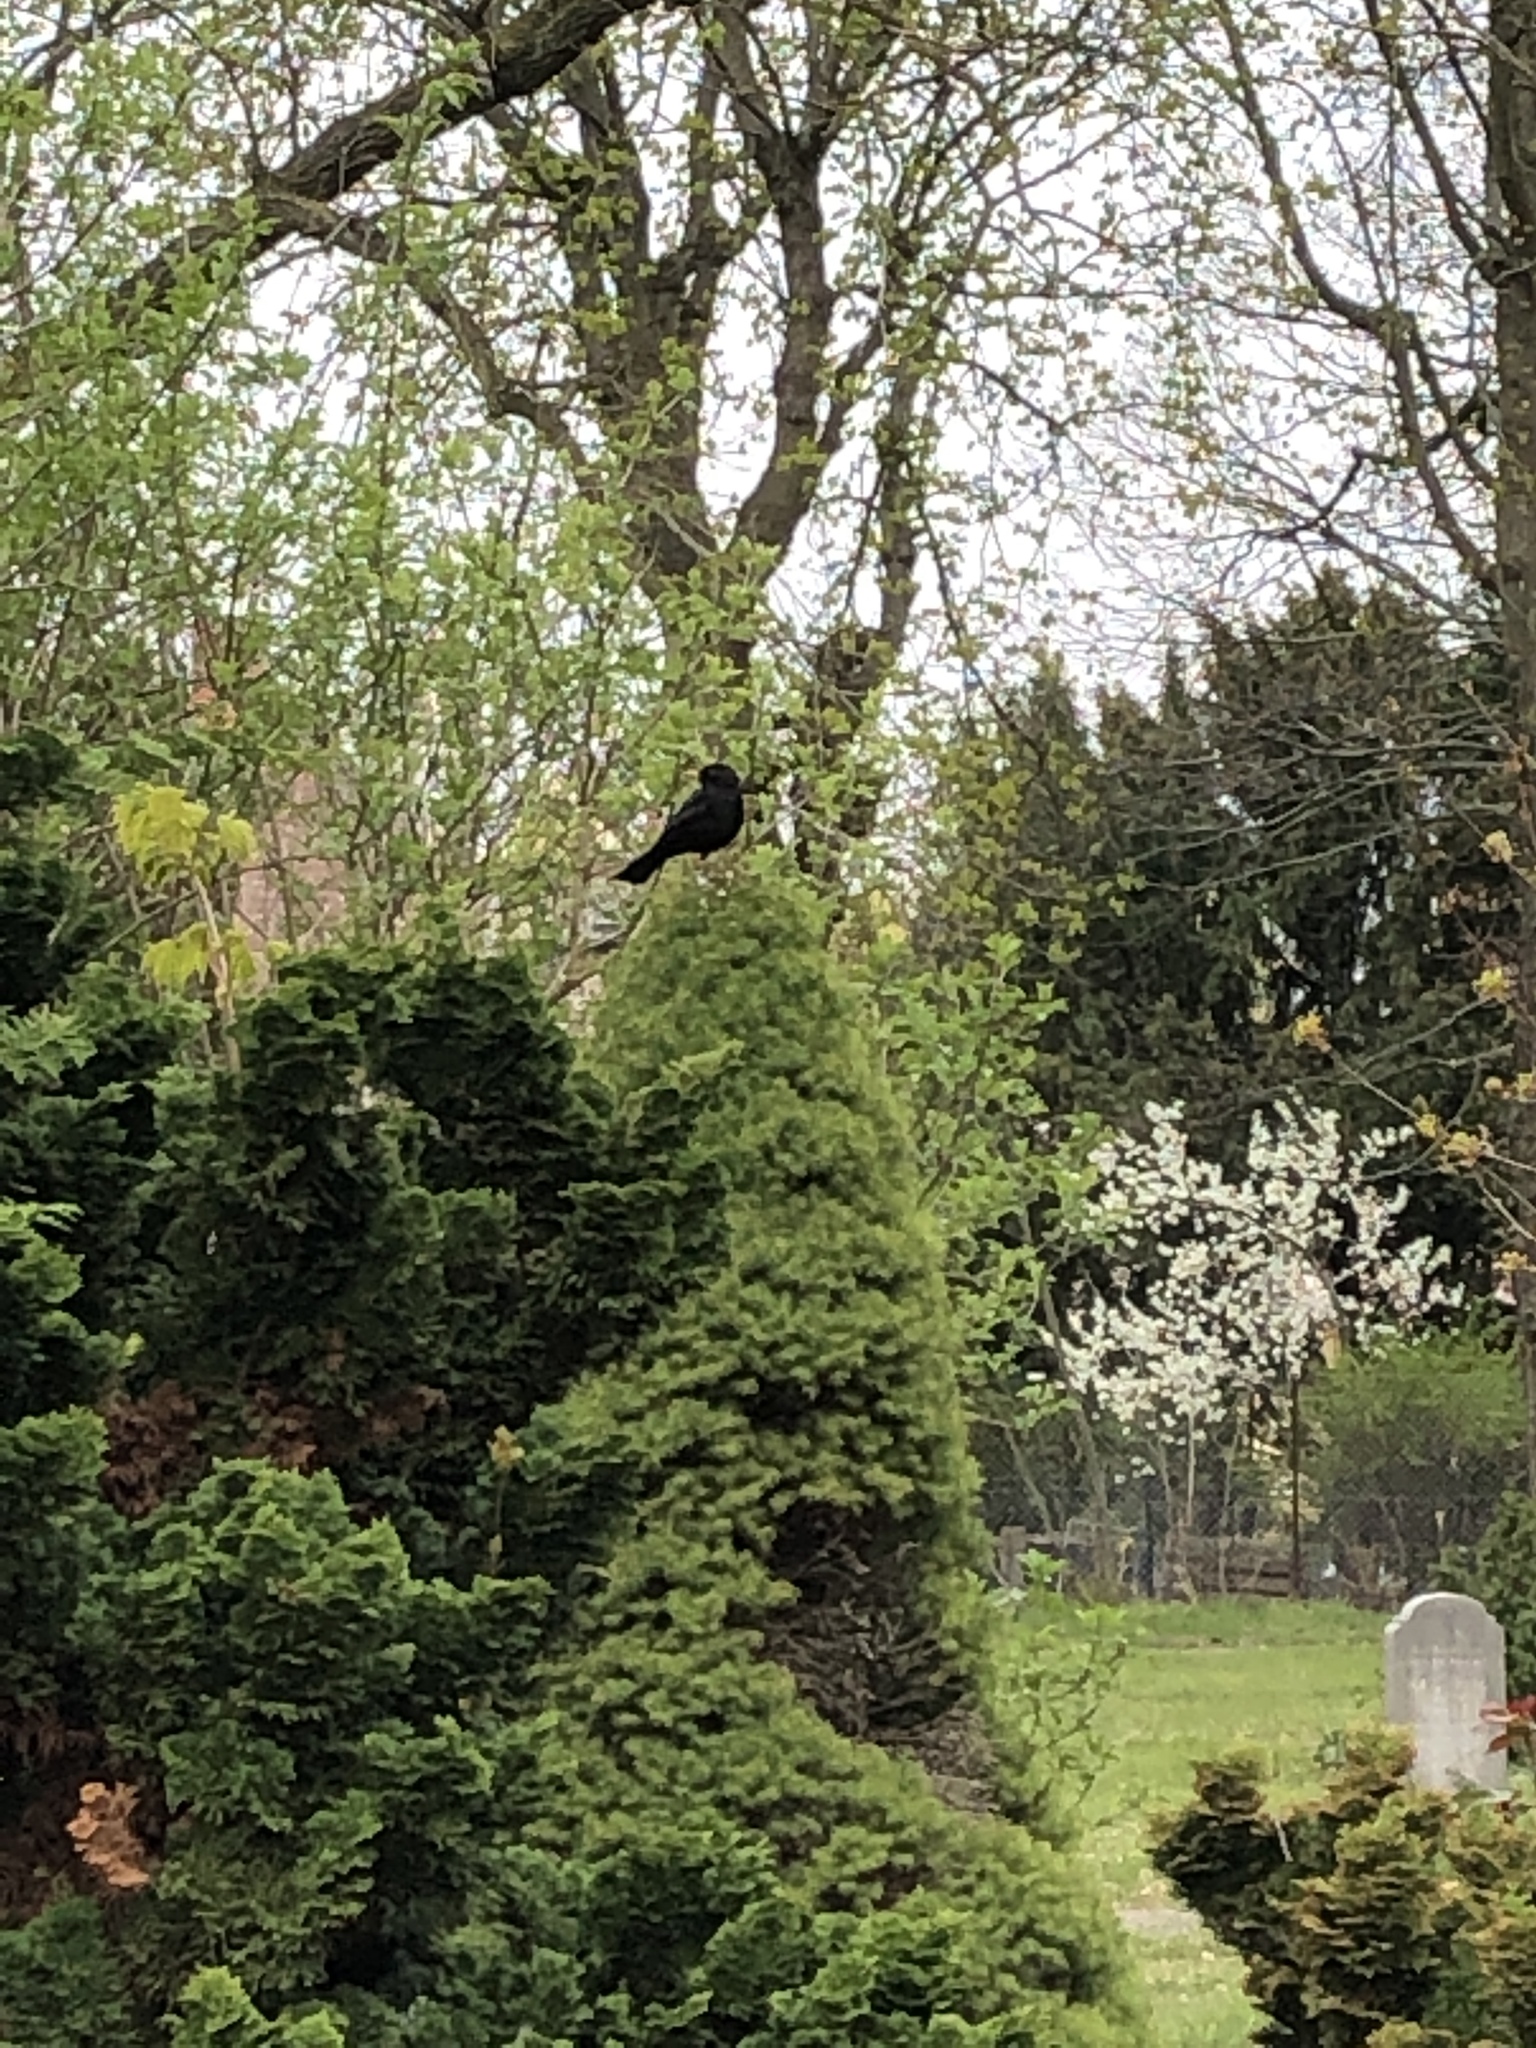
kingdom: Animalia
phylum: Chordata
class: Aves
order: Passeriformes
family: Turdidae
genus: Turdus
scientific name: Turdus merula
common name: Common blackbird
